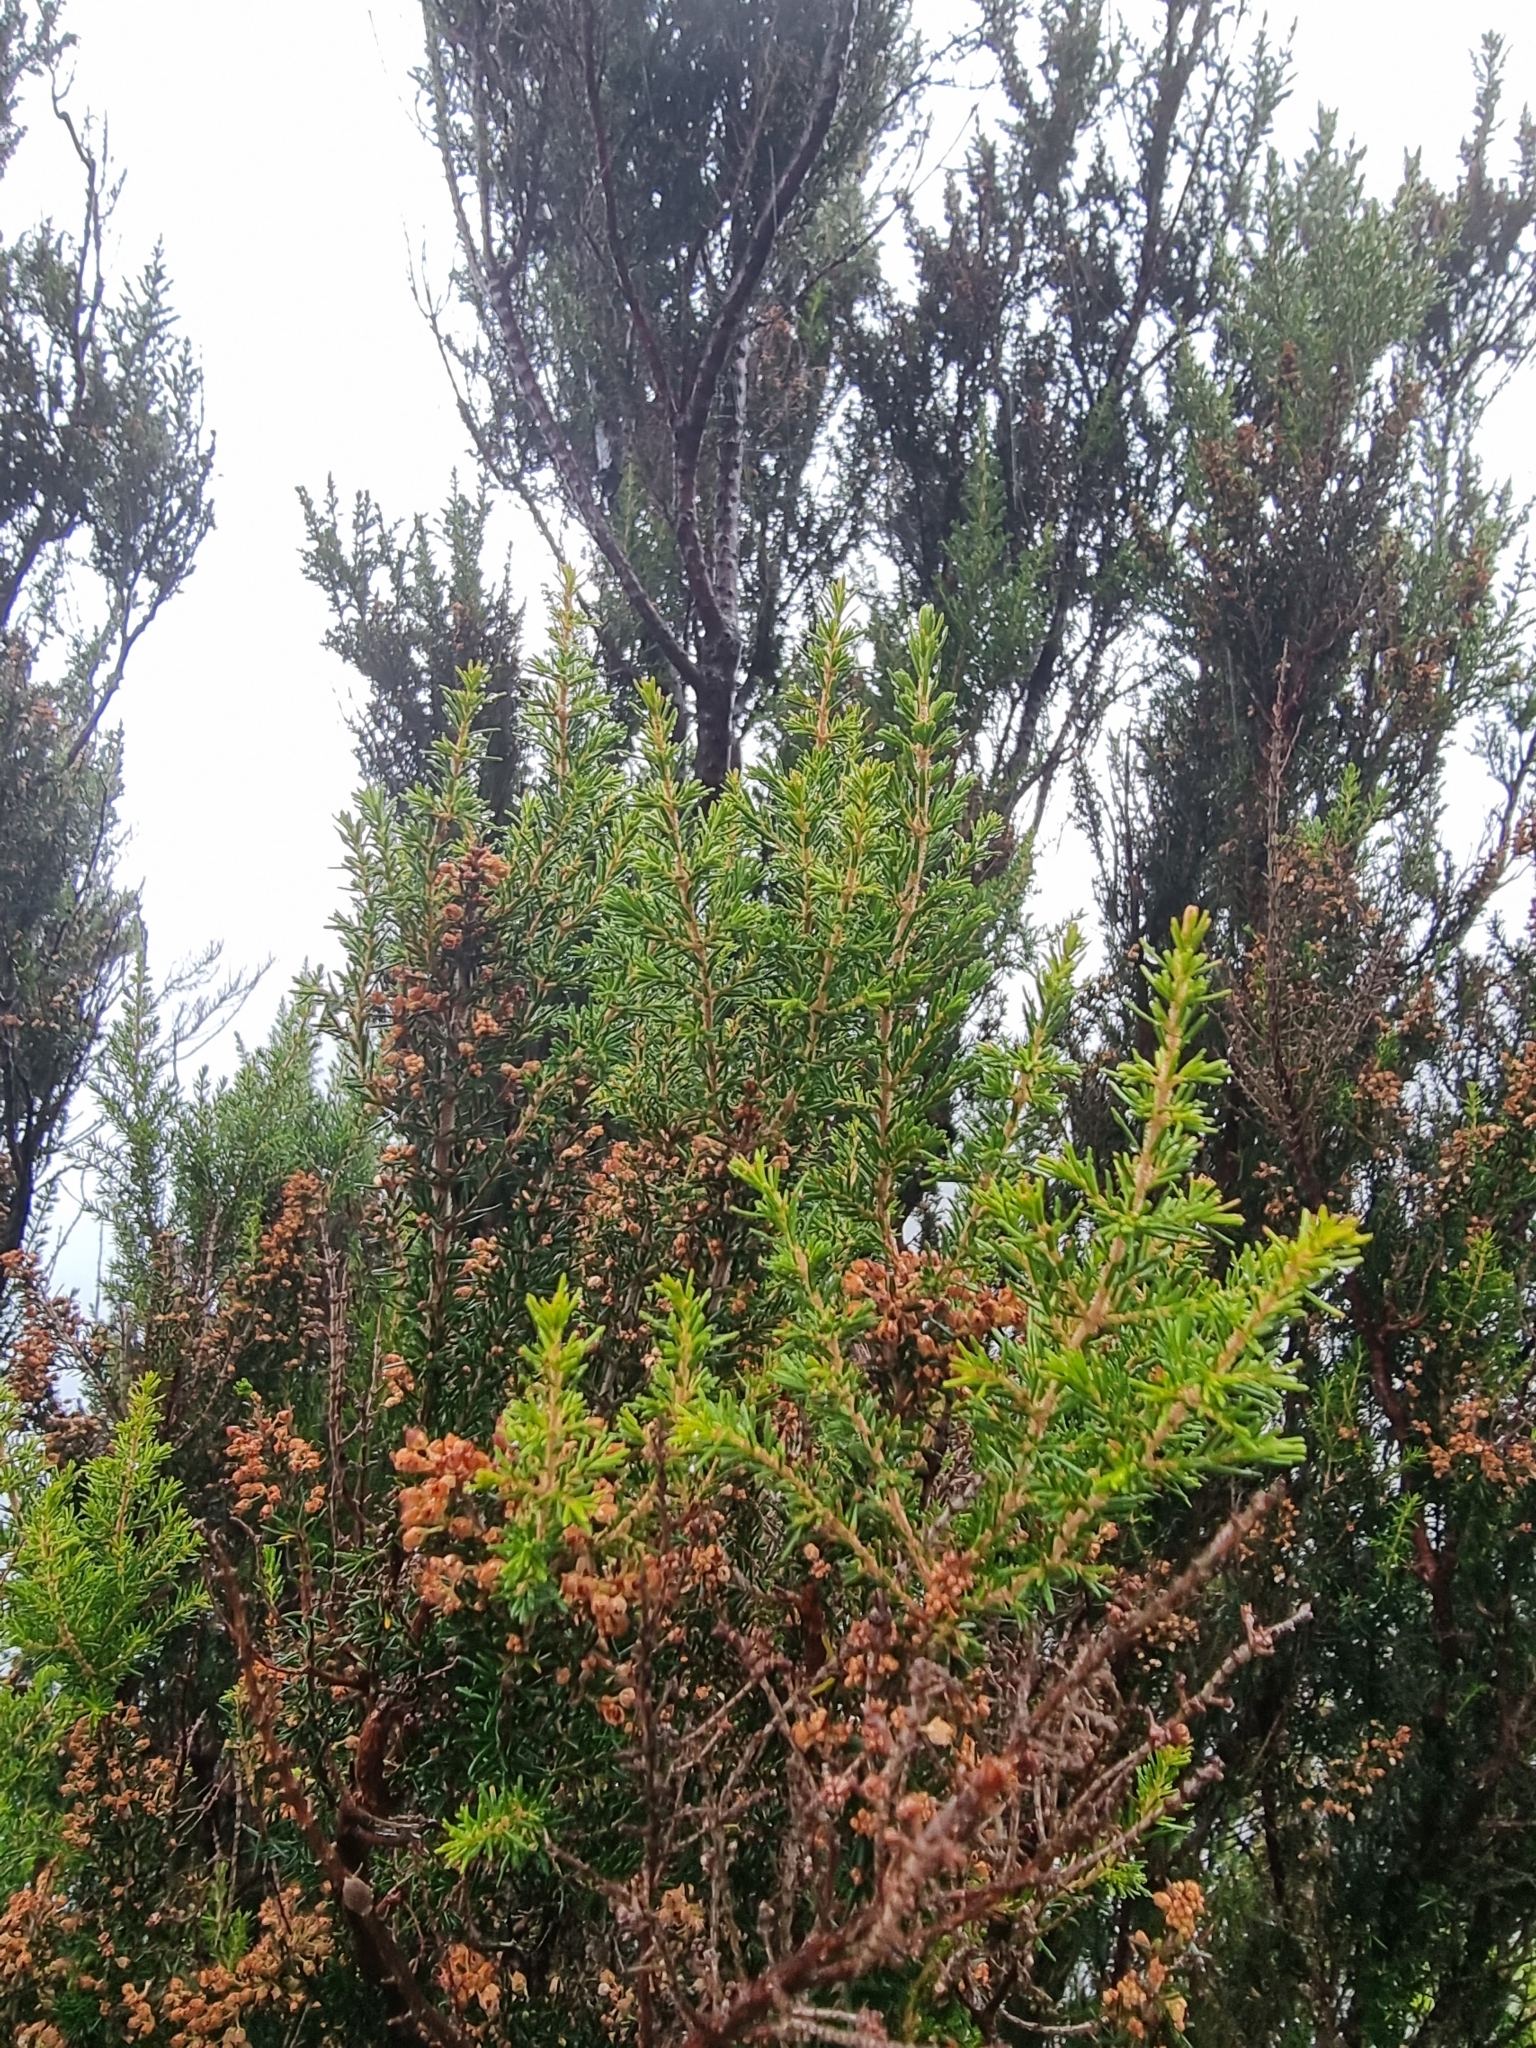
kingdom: Plantae
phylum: Tracheophyta
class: Magnoliopsida
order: Ericales
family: Ericaceae
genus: Erica
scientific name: Erica canariensis
